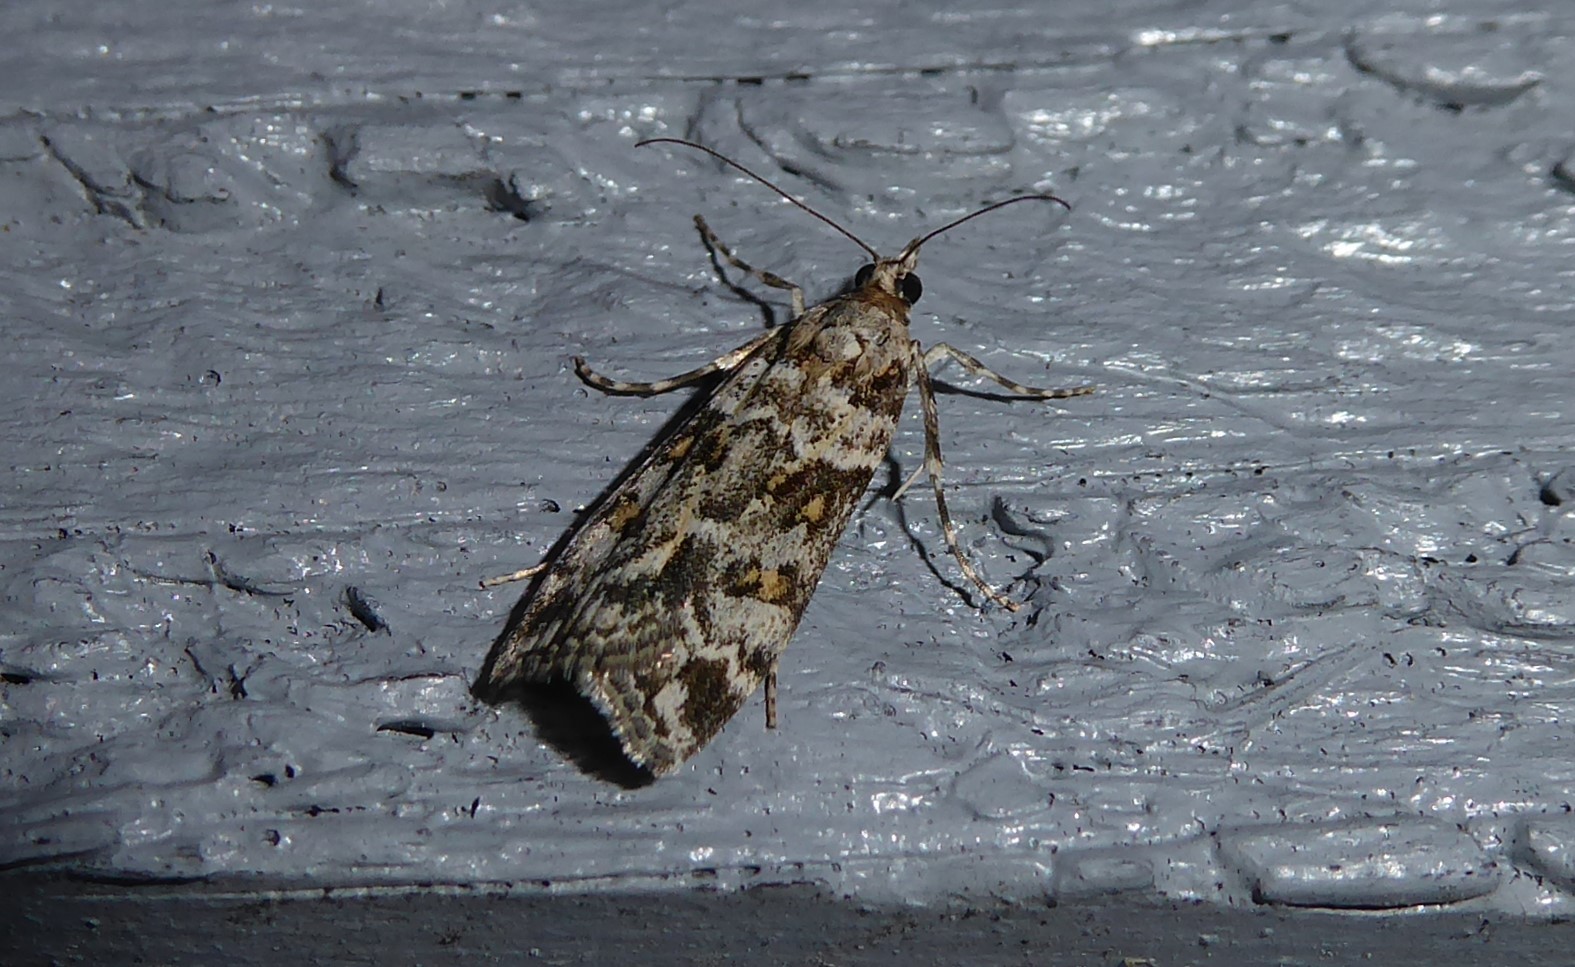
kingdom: Animalia
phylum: Arthropoda
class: Insecta
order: Lepidoptera
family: Crambidae
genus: Eudonia
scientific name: Eudonia diphtheralis
